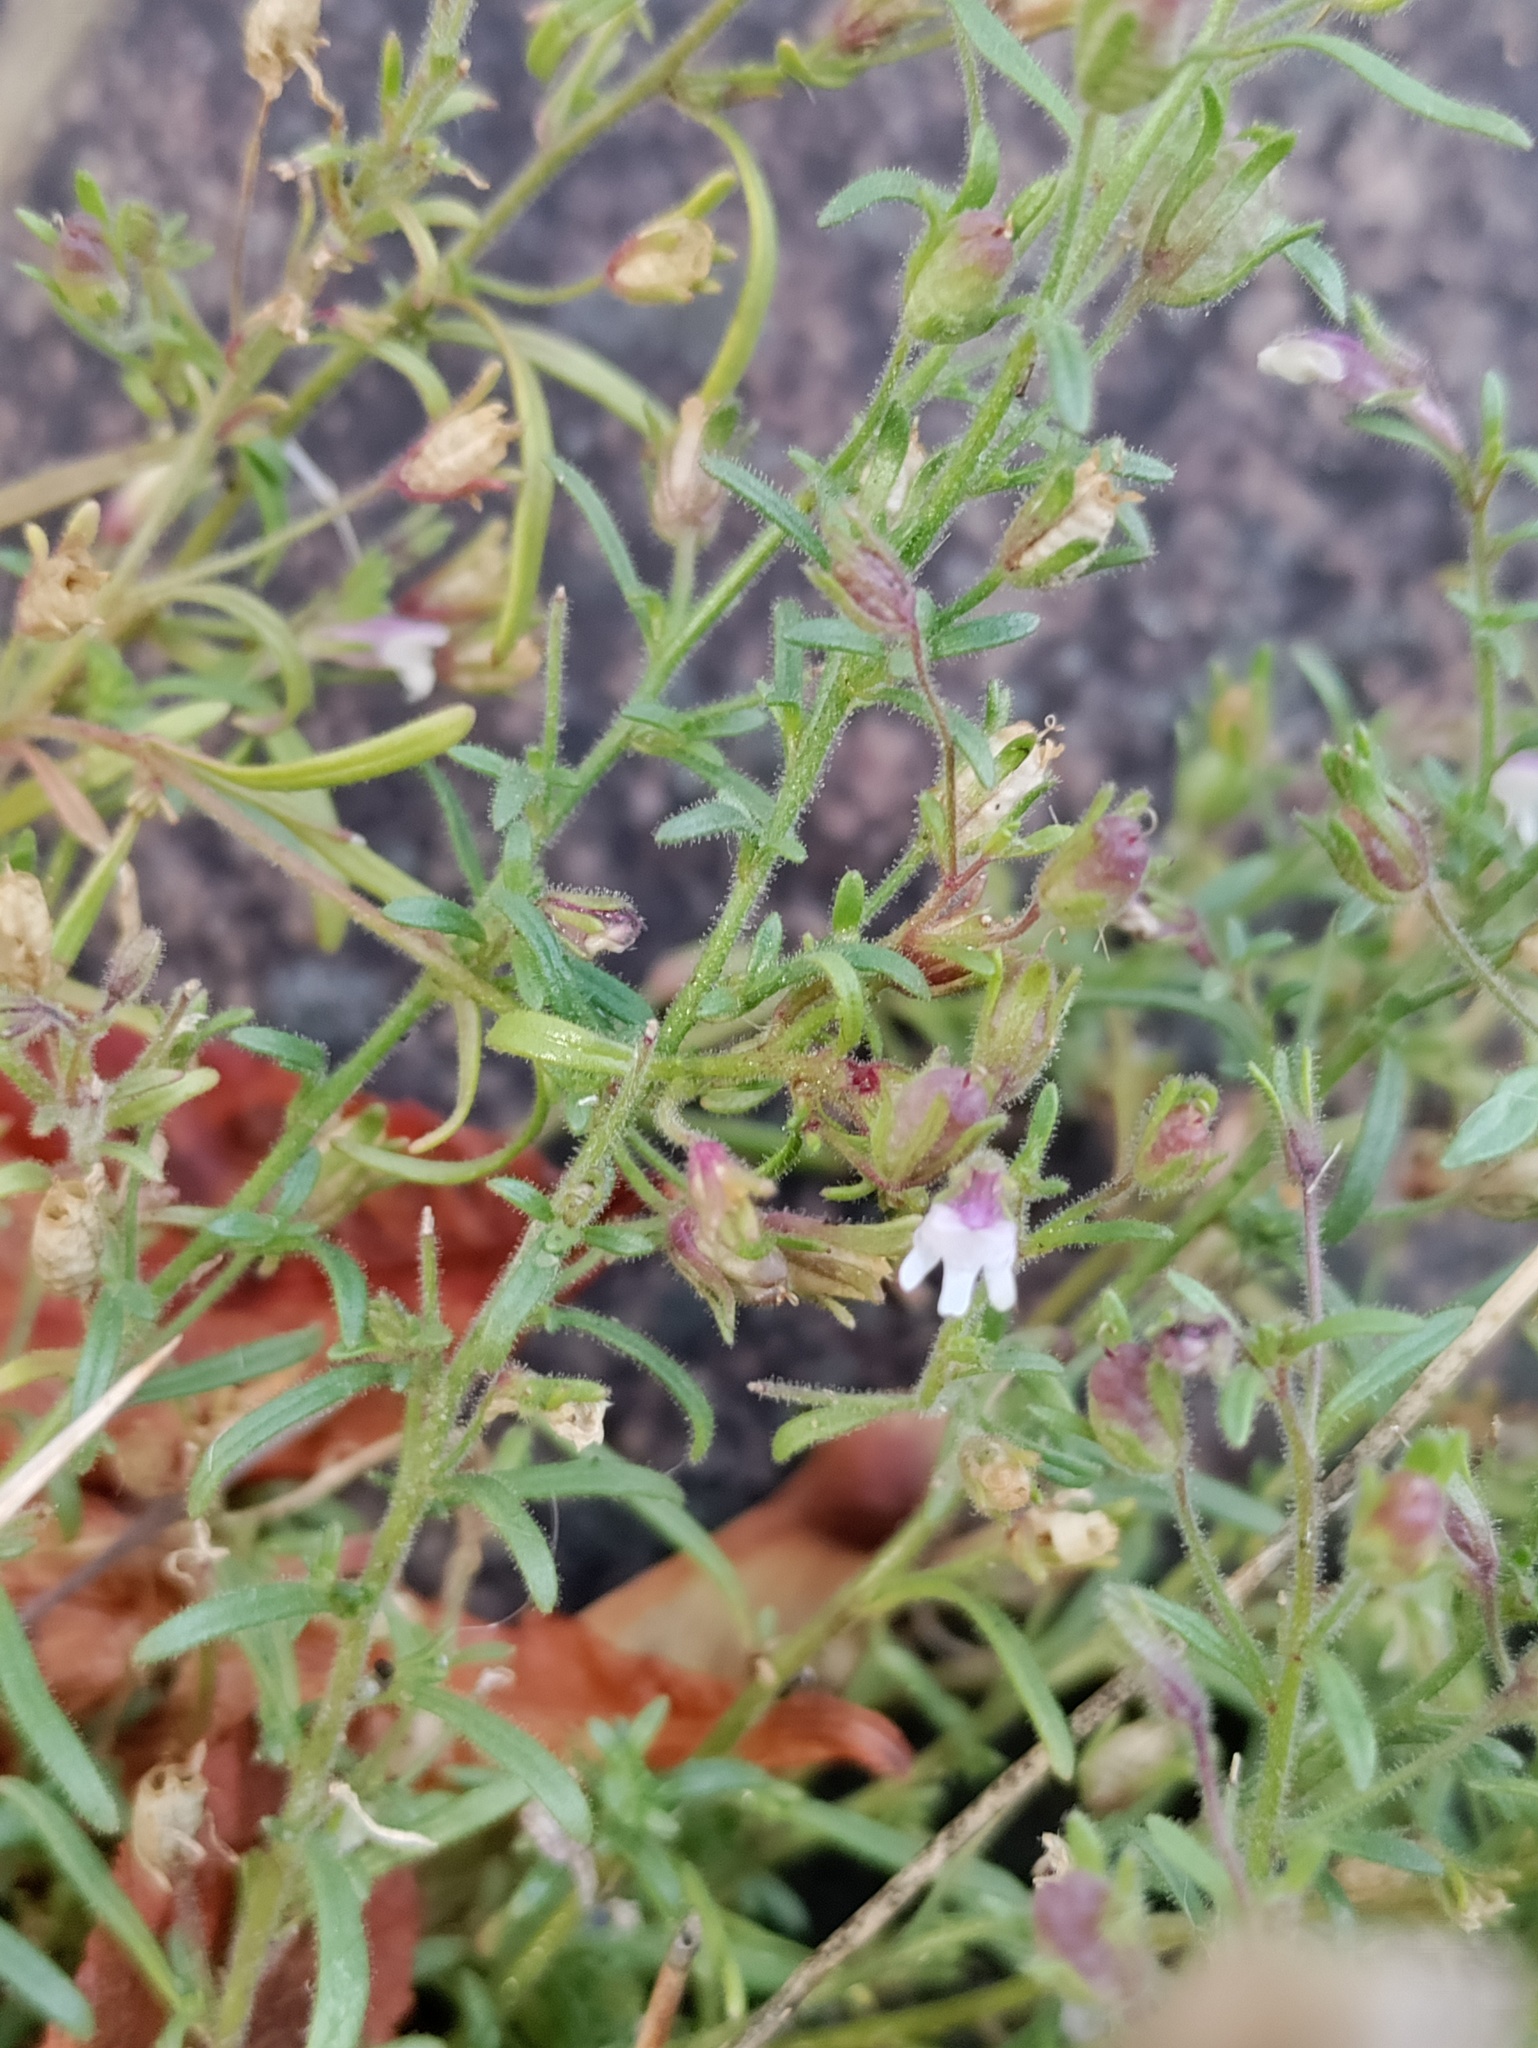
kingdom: Plantae
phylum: Tracheophyta
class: Magnoliopsida
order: Lamiales
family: Plantaginaceae
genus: Chaenorhinum
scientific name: Chaenorhinum minus
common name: Dwarf snapdragon
